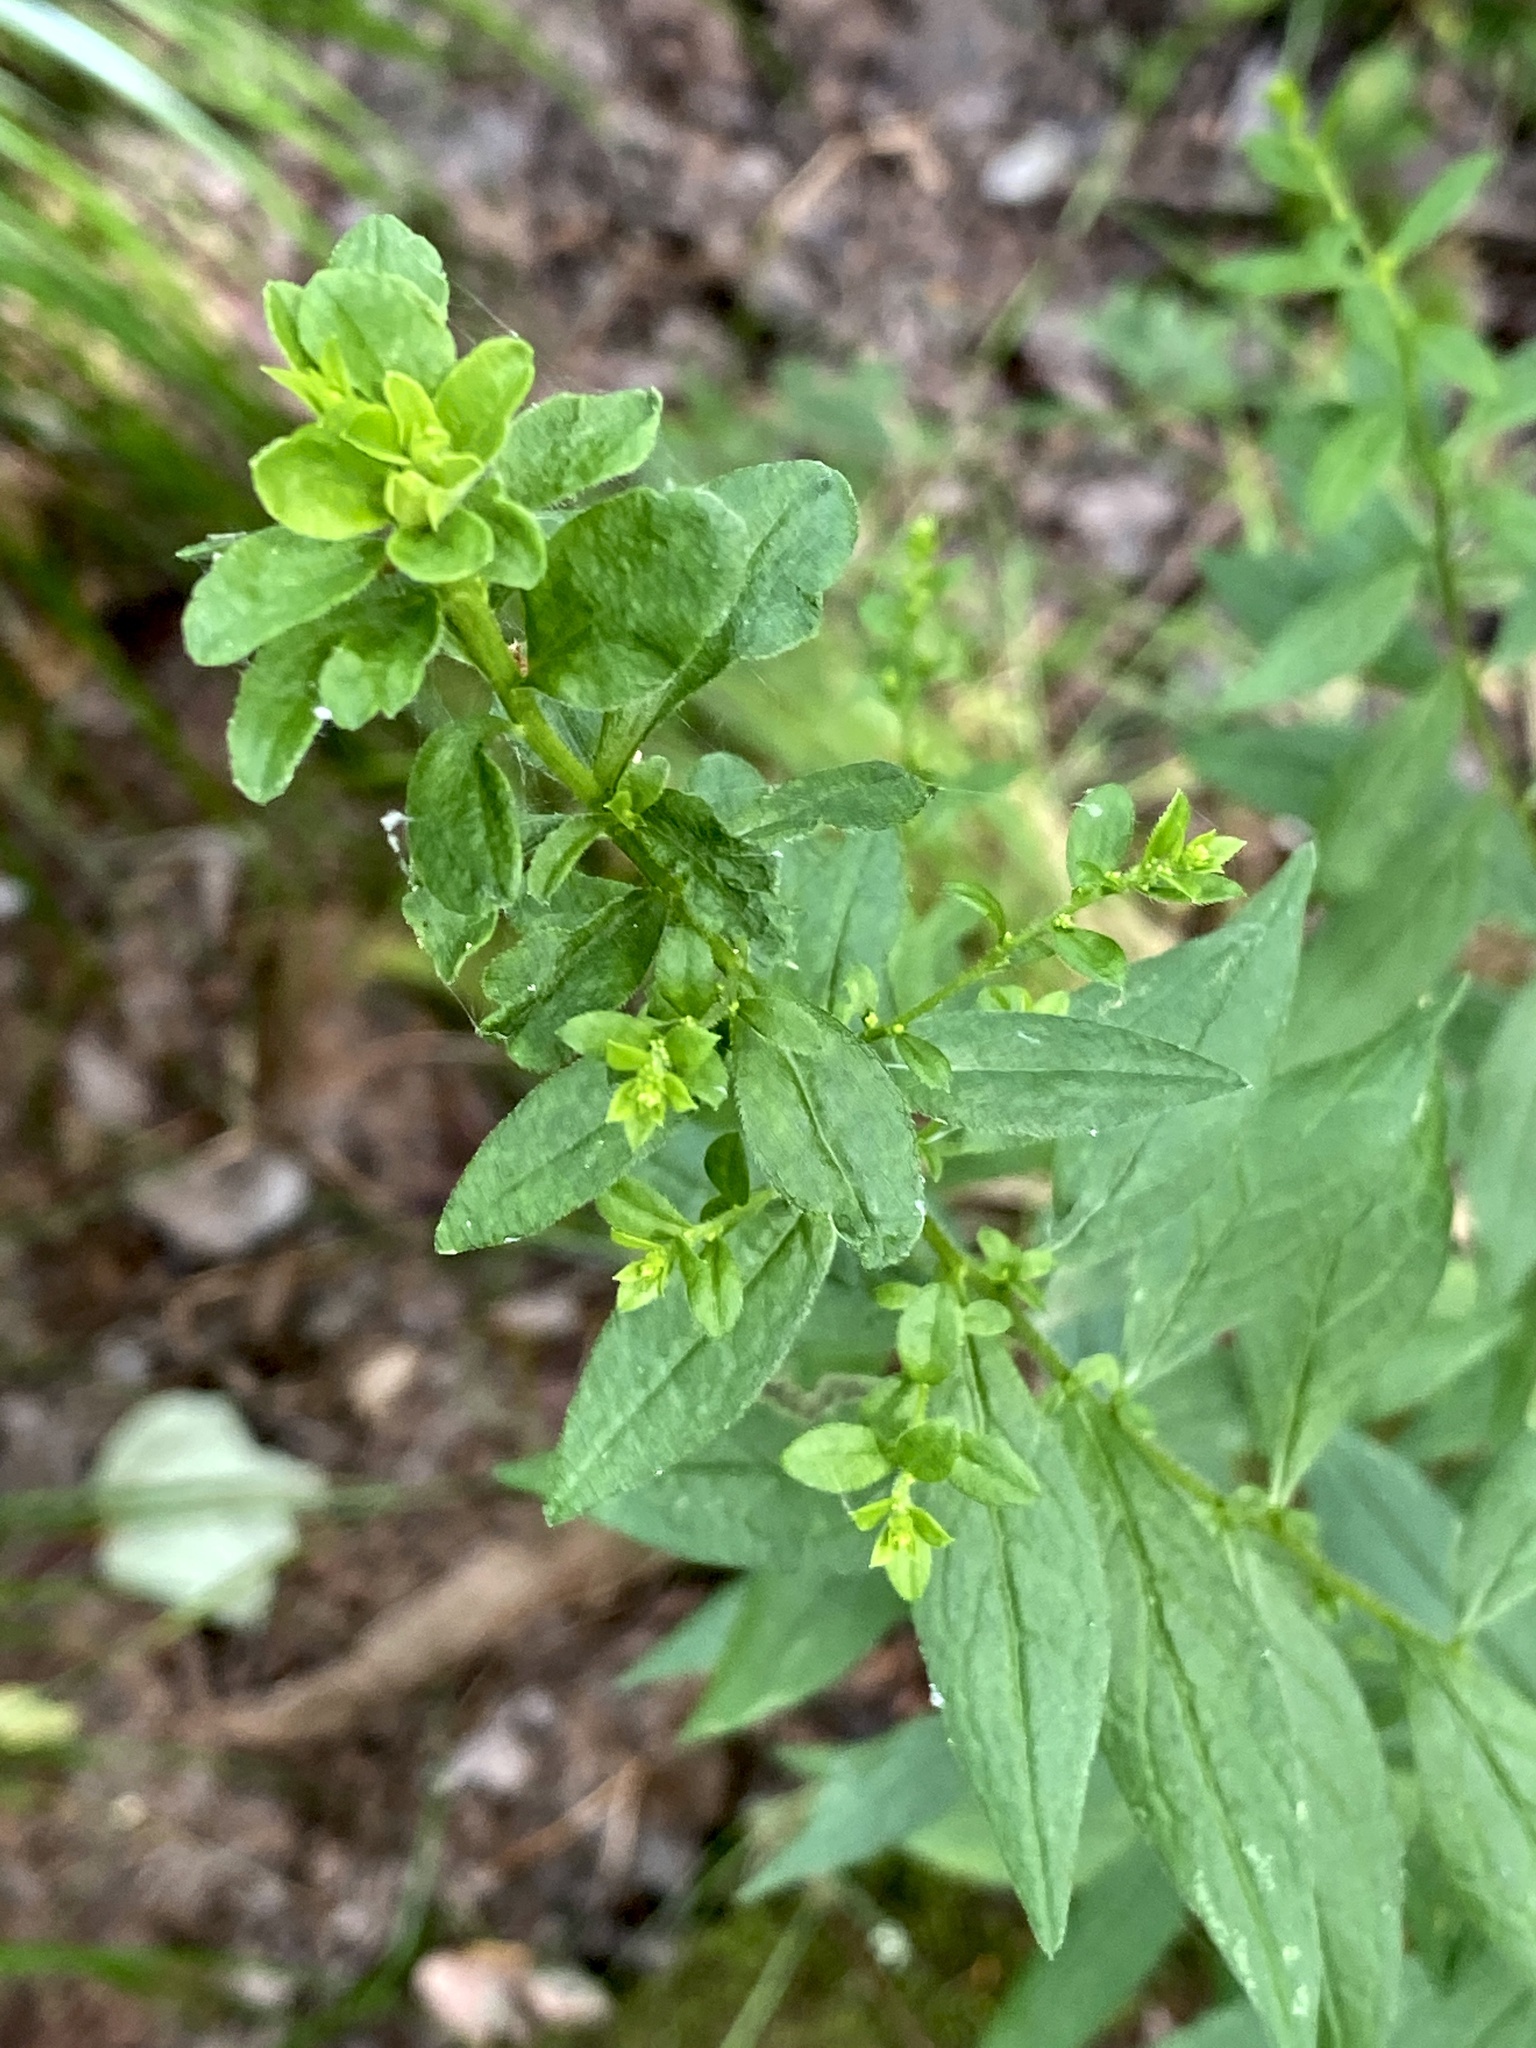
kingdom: Plantae
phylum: Tracheophyta
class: Magnoliopsida
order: Asterales
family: Asteraceae
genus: Solidago
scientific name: Solidago rugosa
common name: Rough-stemmed goldenrod
